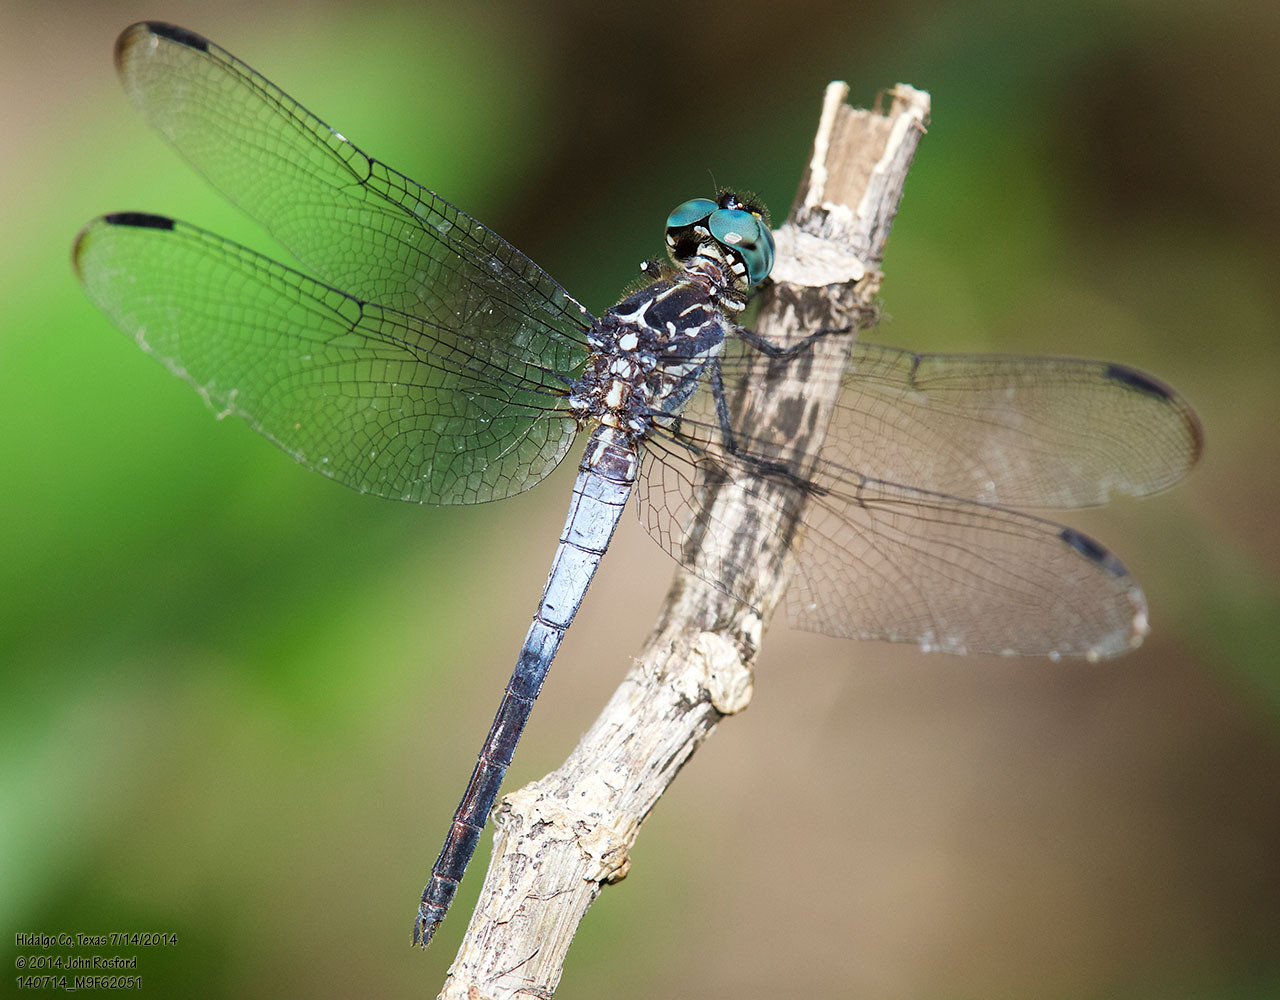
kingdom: Animalia
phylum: Arthropoda
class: Insecta
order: Odonata
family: Libellulidae
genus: Cannaphila
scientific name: Cannaphila insularis
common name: Gray-waisted skimmer
